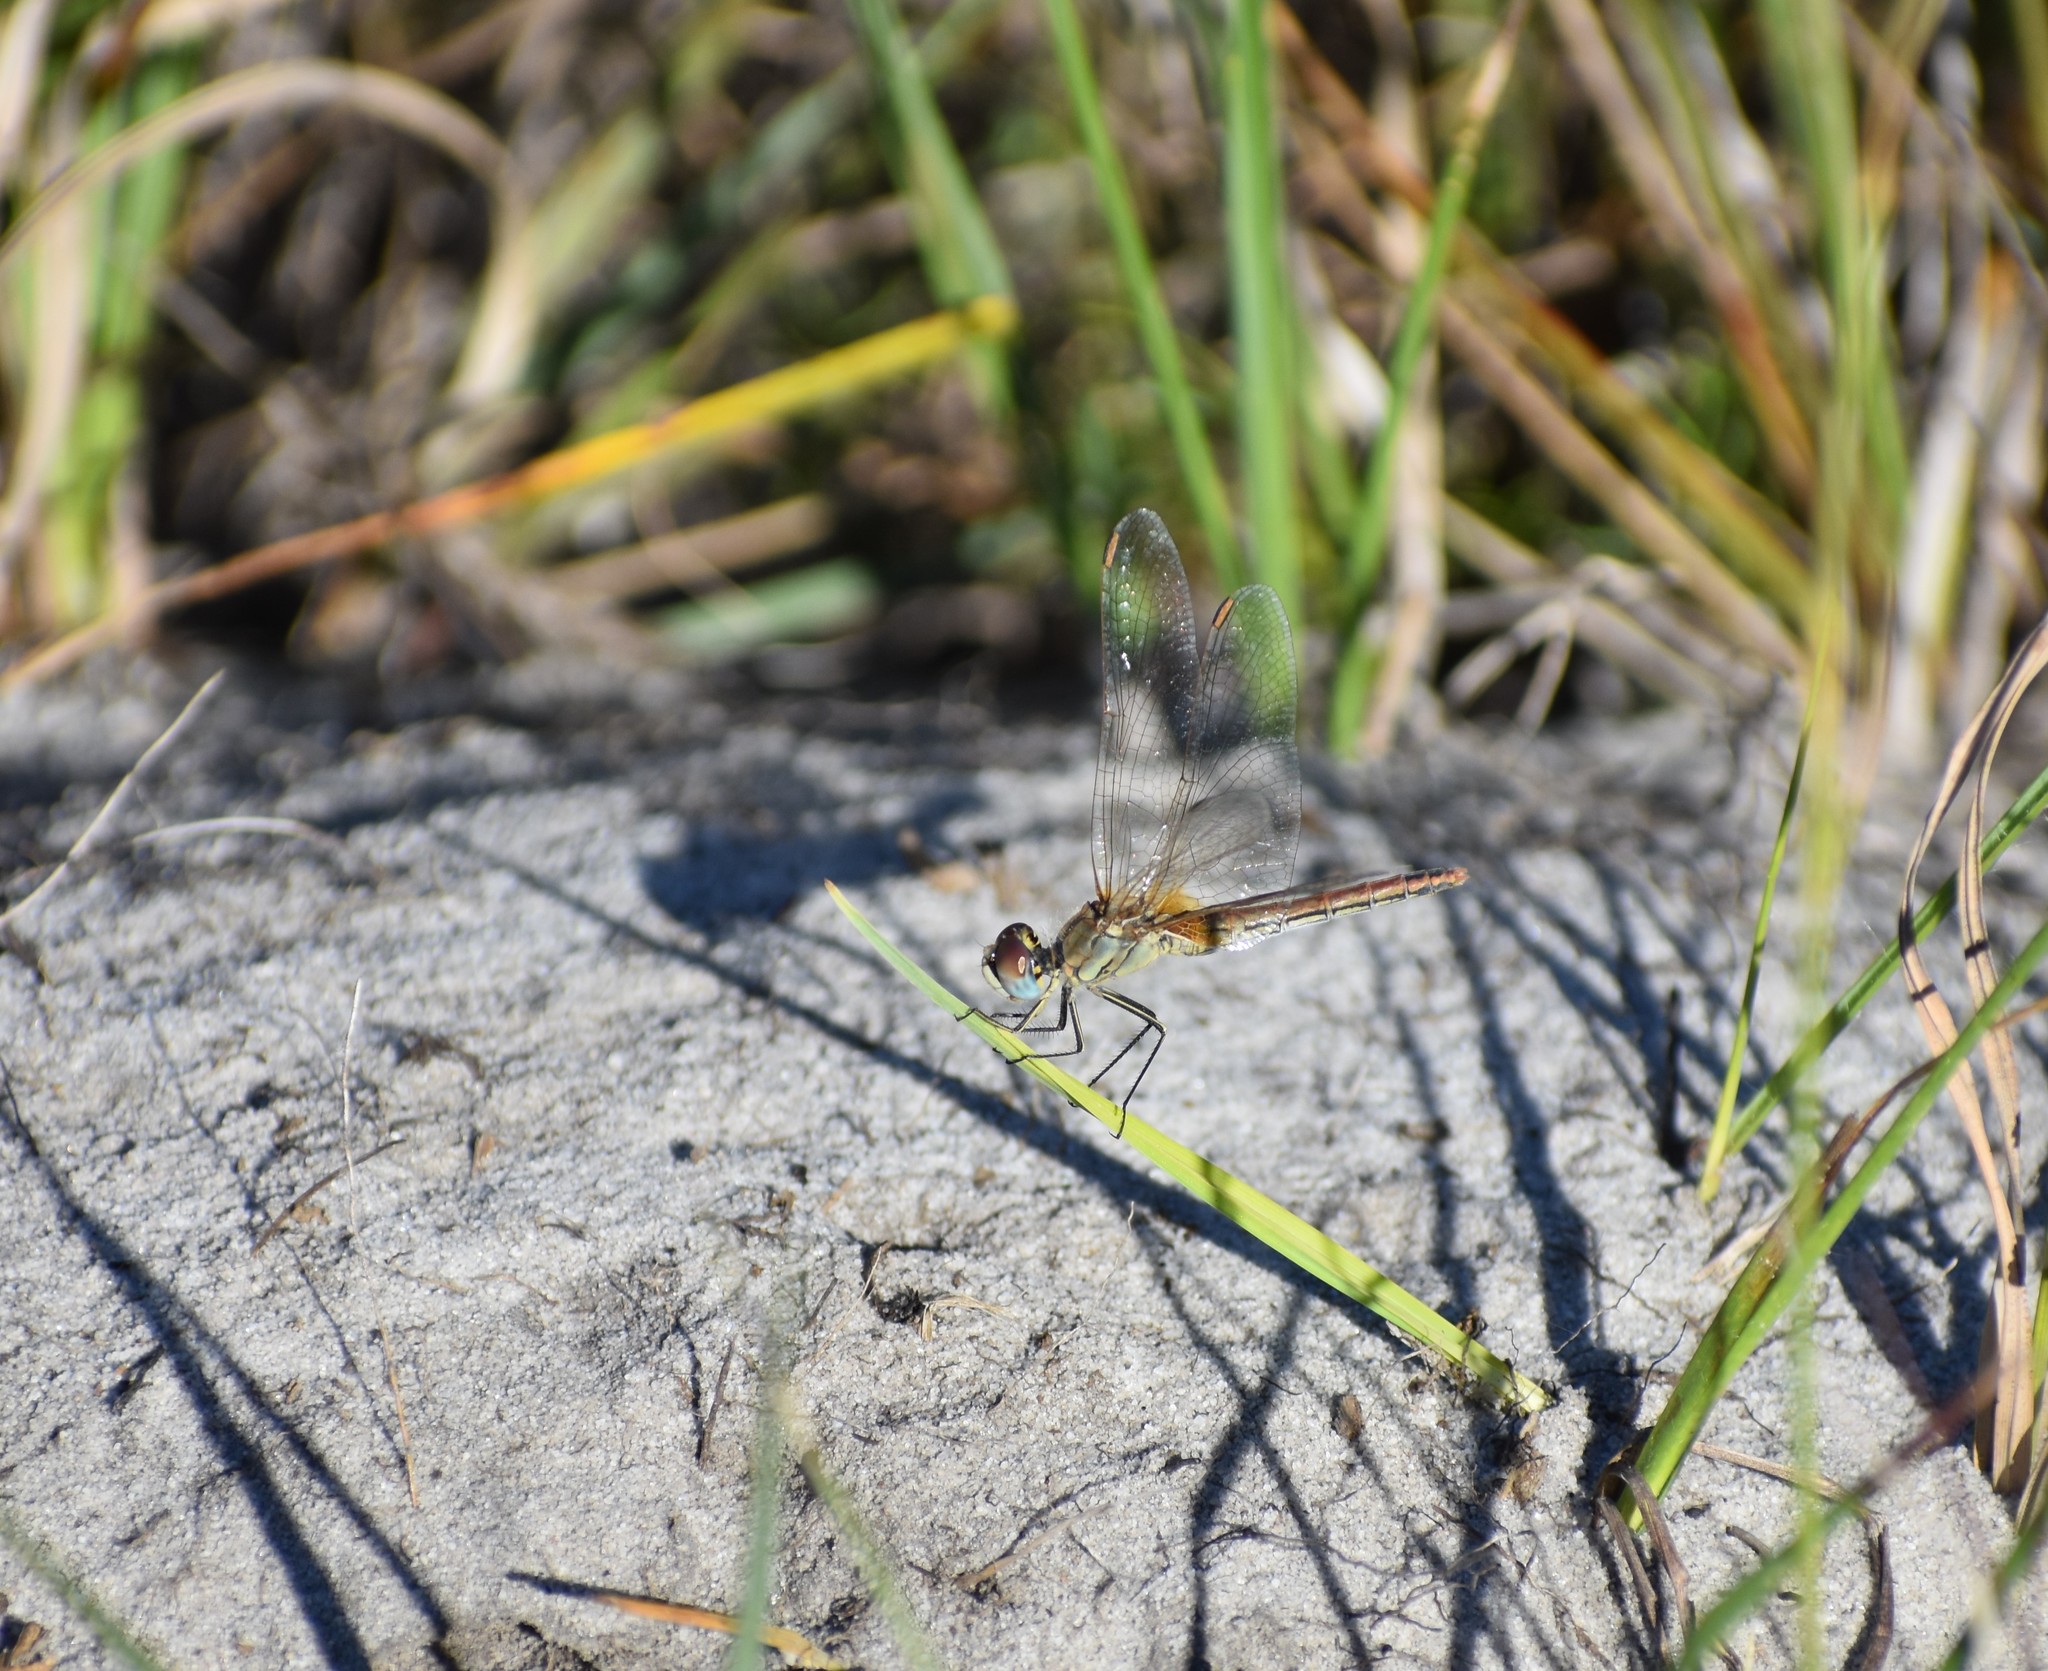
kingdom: Animalia
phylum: Arthropoda
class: Insecta
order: Odonata
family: Libellulidae
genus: Sympetrum
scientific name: Sympetrum fonscolombii
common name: Red-veined darter
